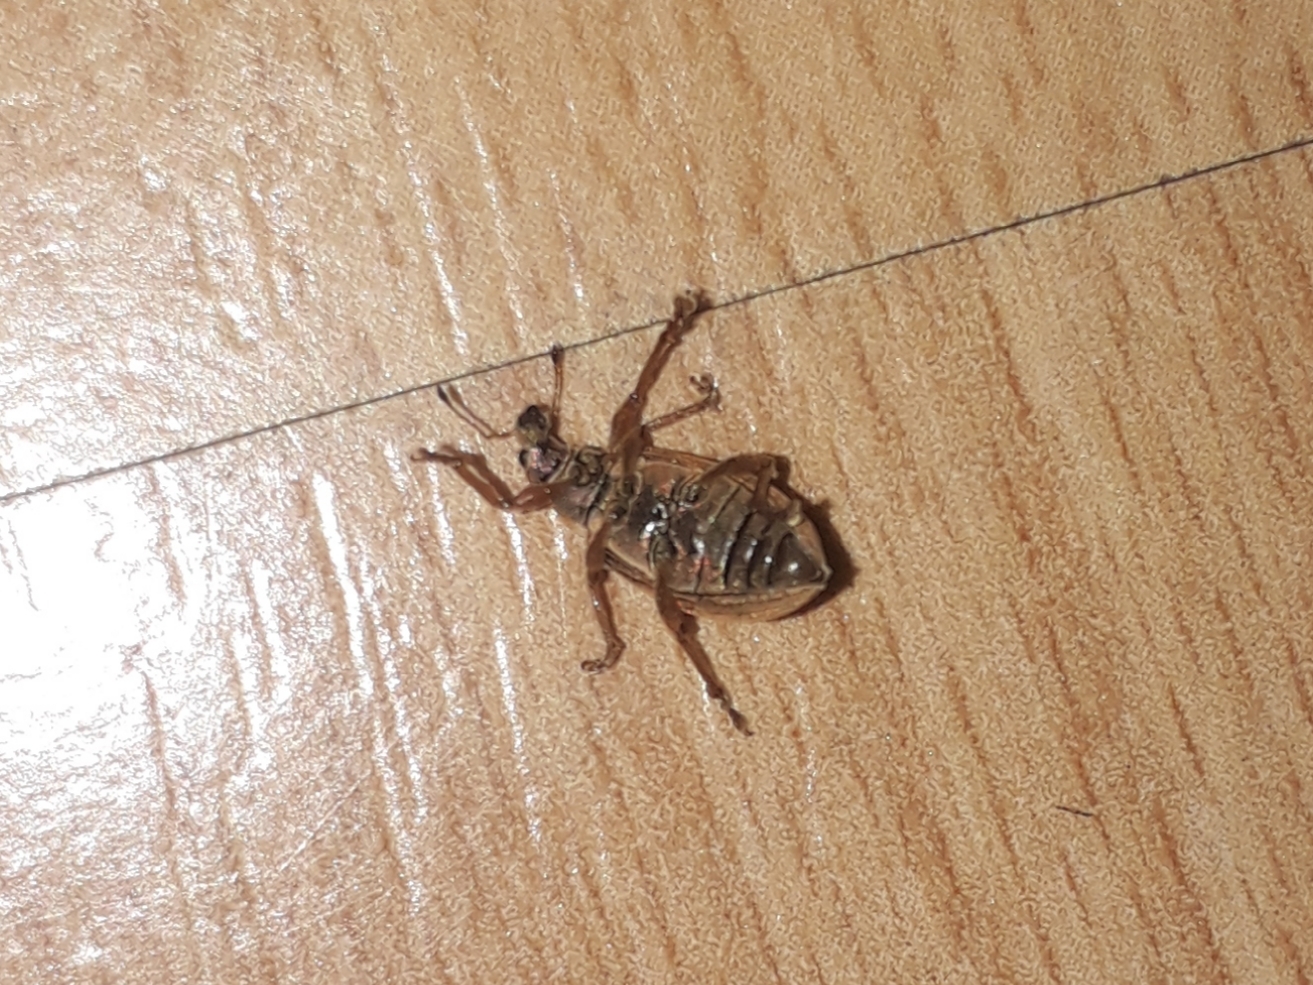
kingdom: Animalia
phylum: Arthropoda
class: Insecta
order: Coleoptera
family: Curculionidae
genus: Polydrusus
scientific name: Polydrusus mollis
